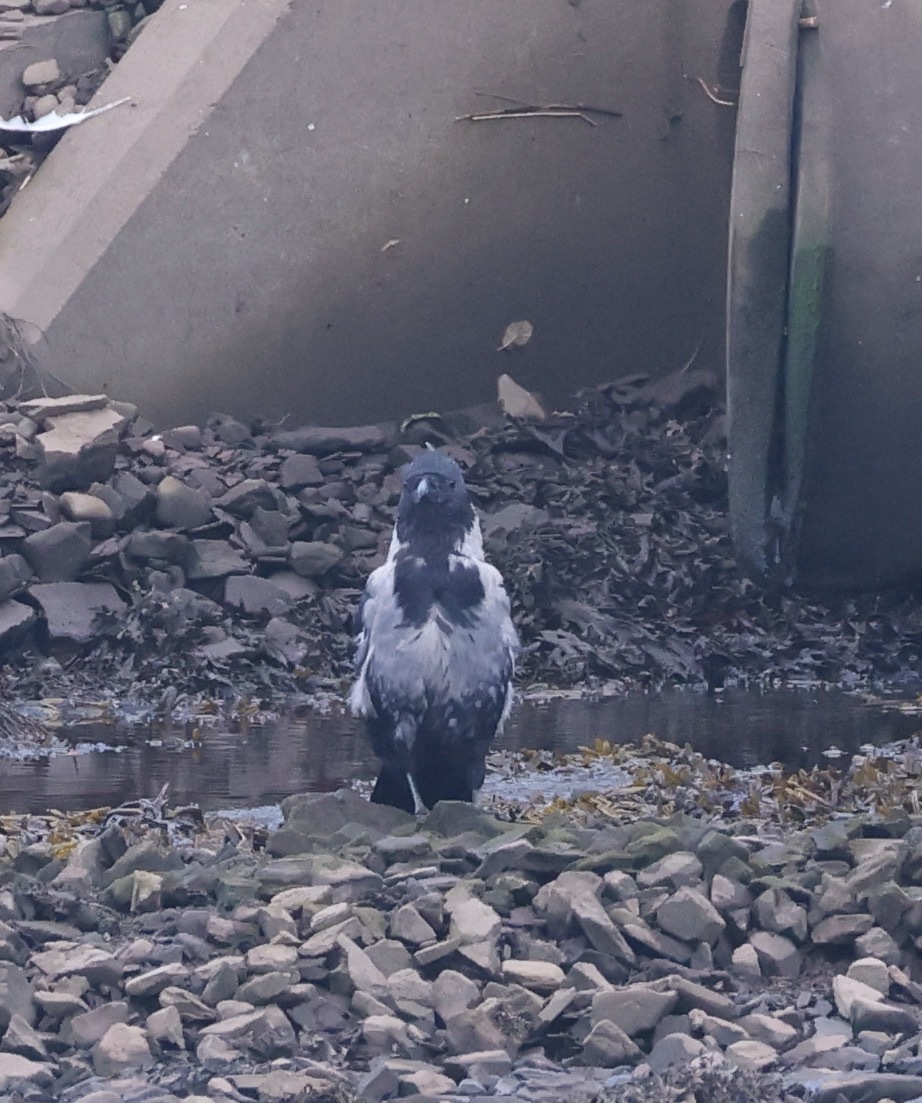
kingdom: Animalia
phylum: Chordata
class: Aves
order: Passeriformes
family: Corvidae
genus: Corvus
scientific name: Corvus
